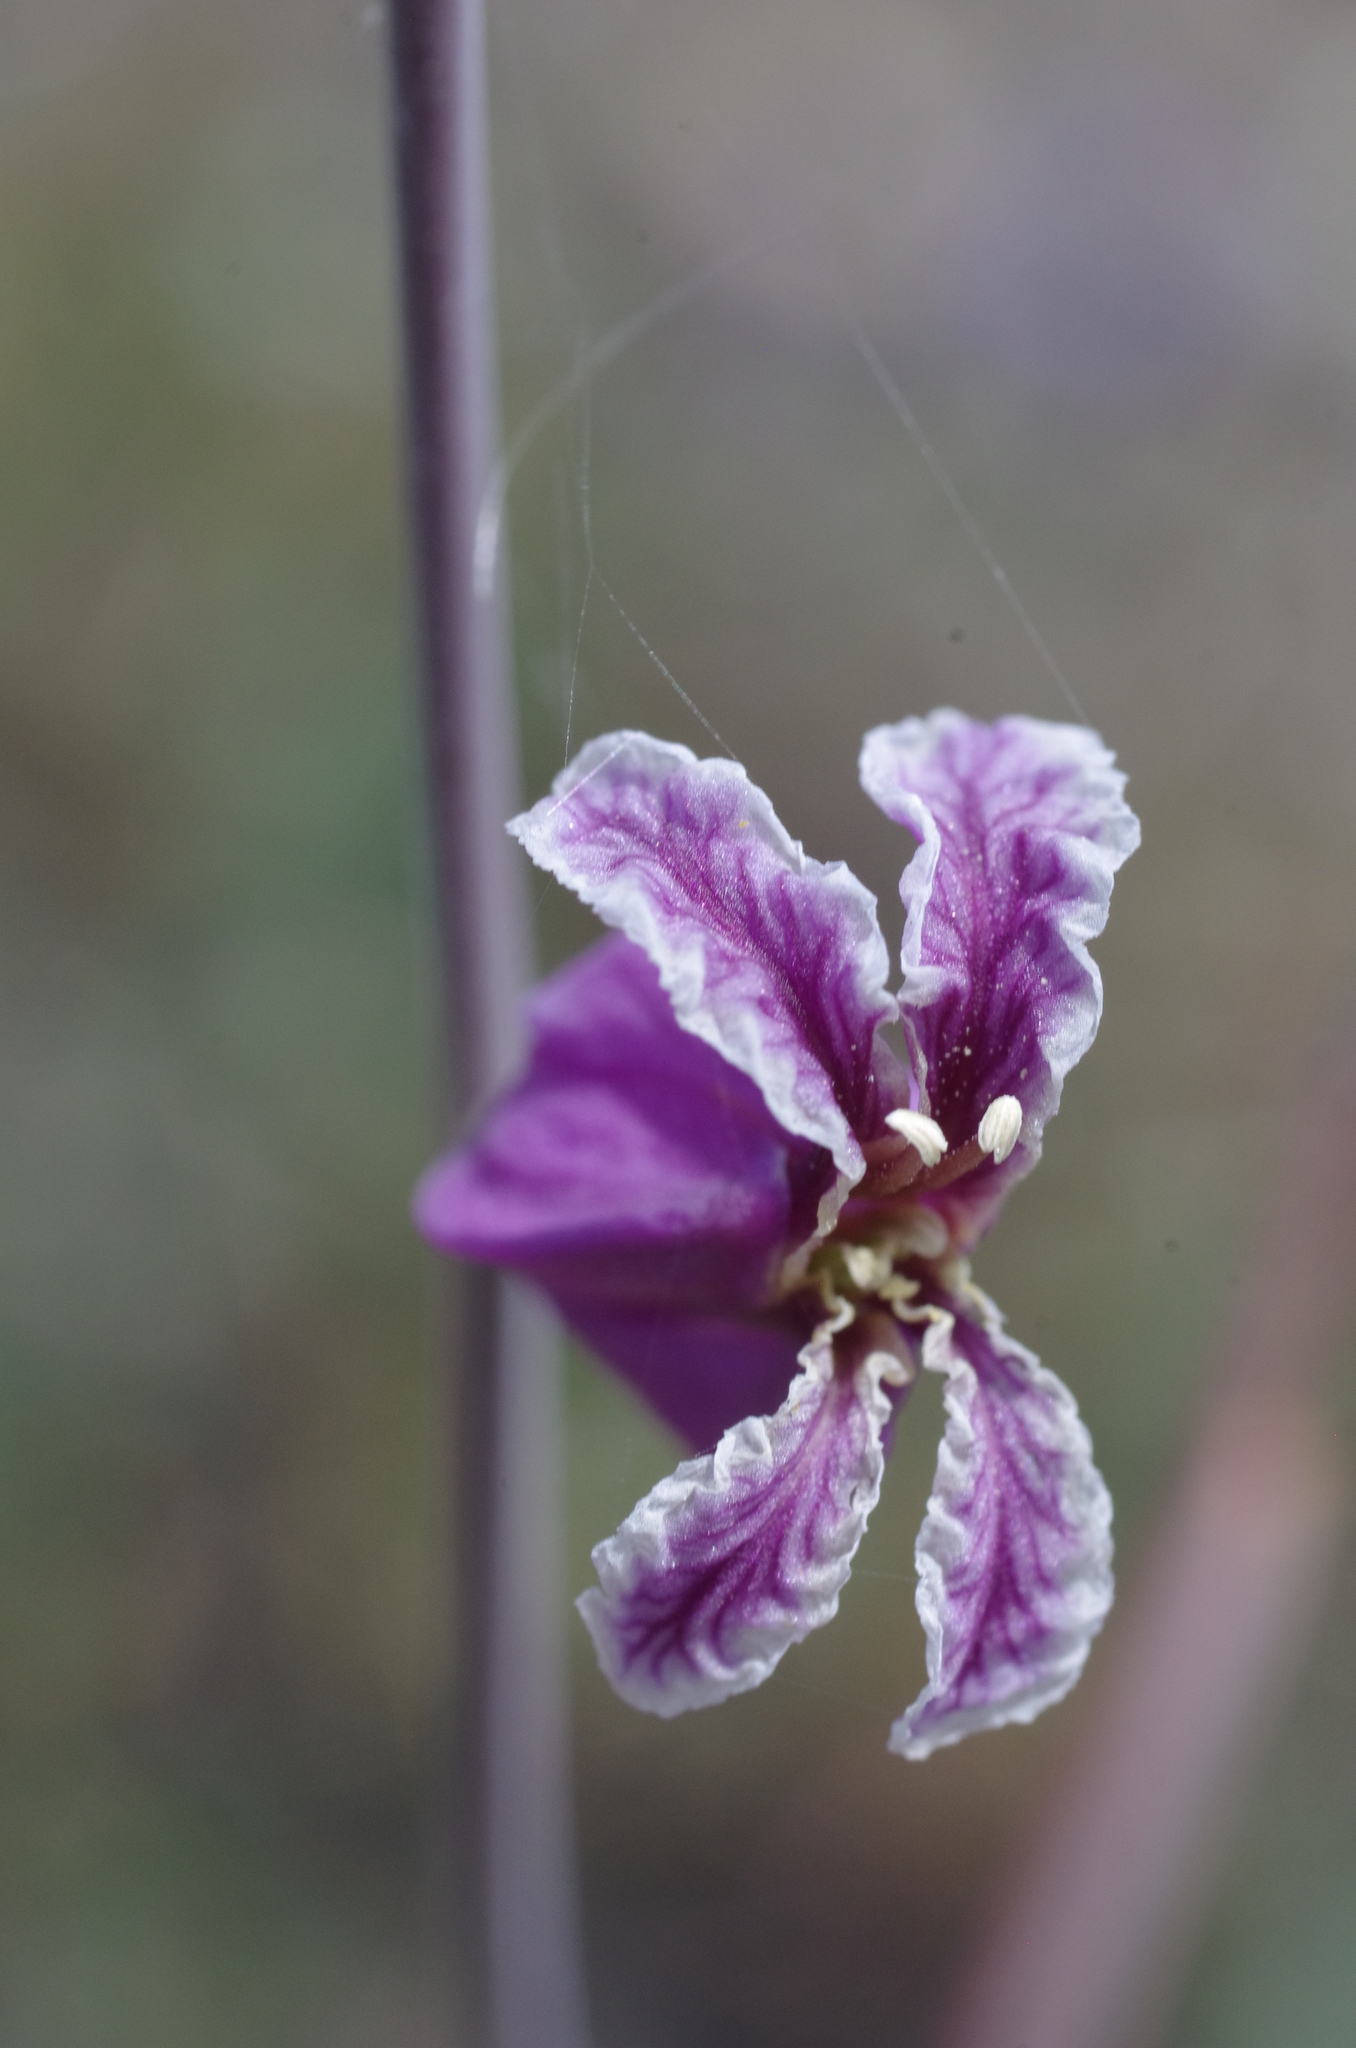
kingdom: Plantae
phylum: Tracheophyta
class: Magnoliopsida
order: Brassicales
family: Brassicaceae
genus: Streptanthus
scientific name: Streptanthus glandulosus
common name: Jewel-flower
